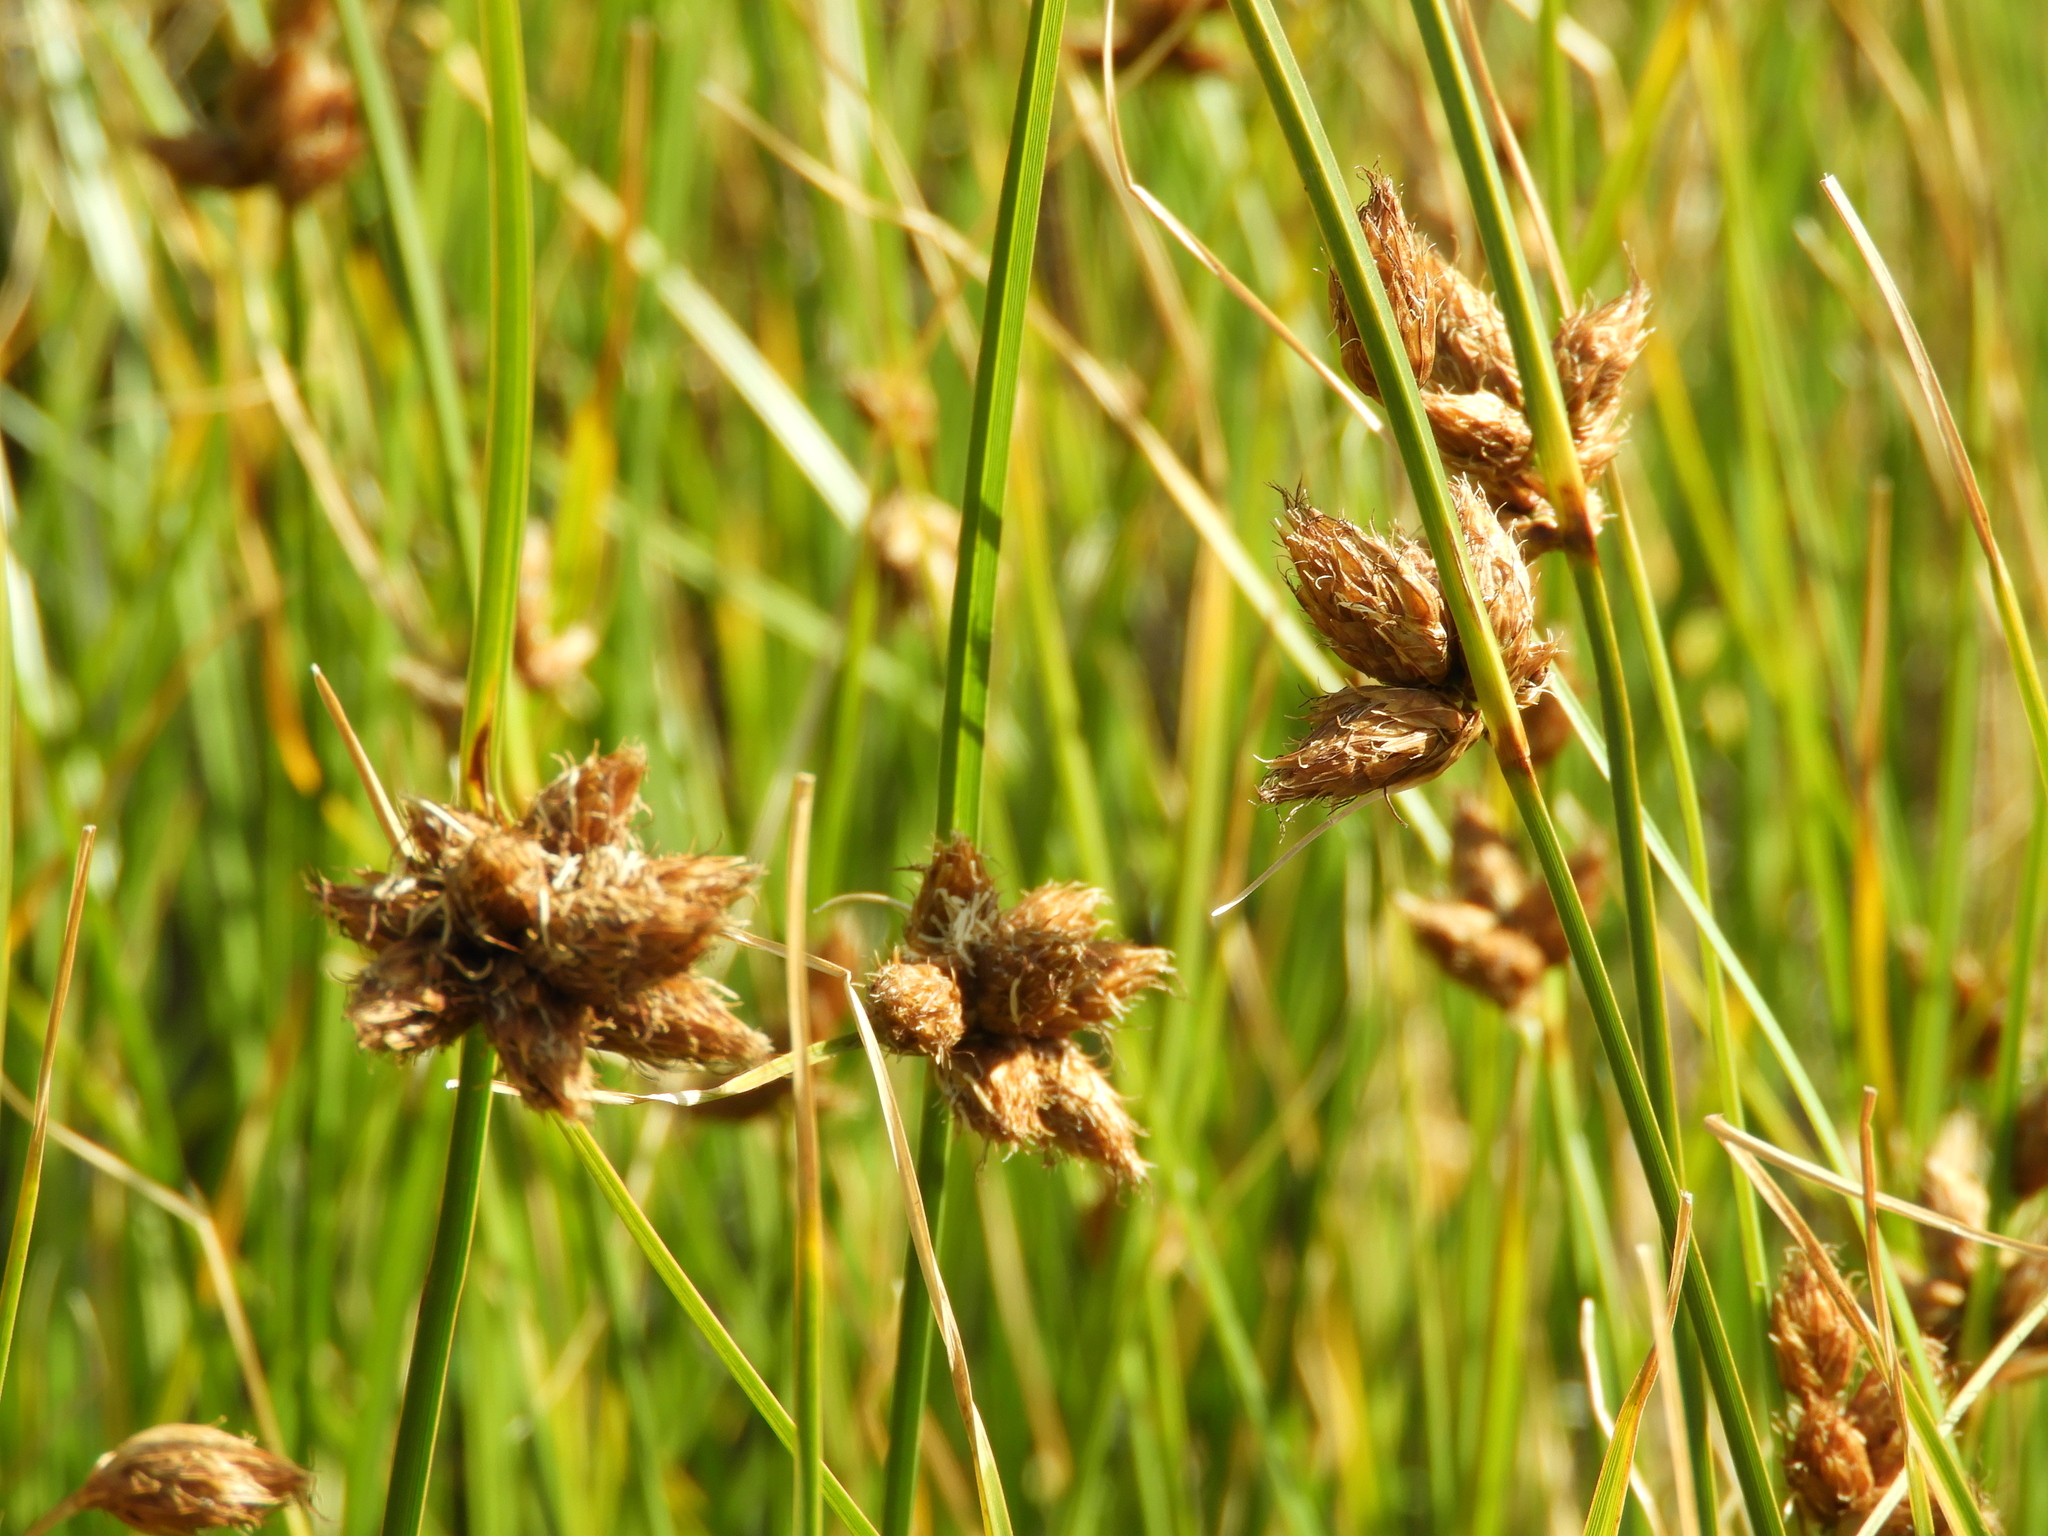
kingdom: Plantae
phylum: Tracheophyta
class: Liliopsida
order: Poales
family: Cyperaceae
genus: Bolboschoenus
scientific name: Bolboschoenus caldwellii
